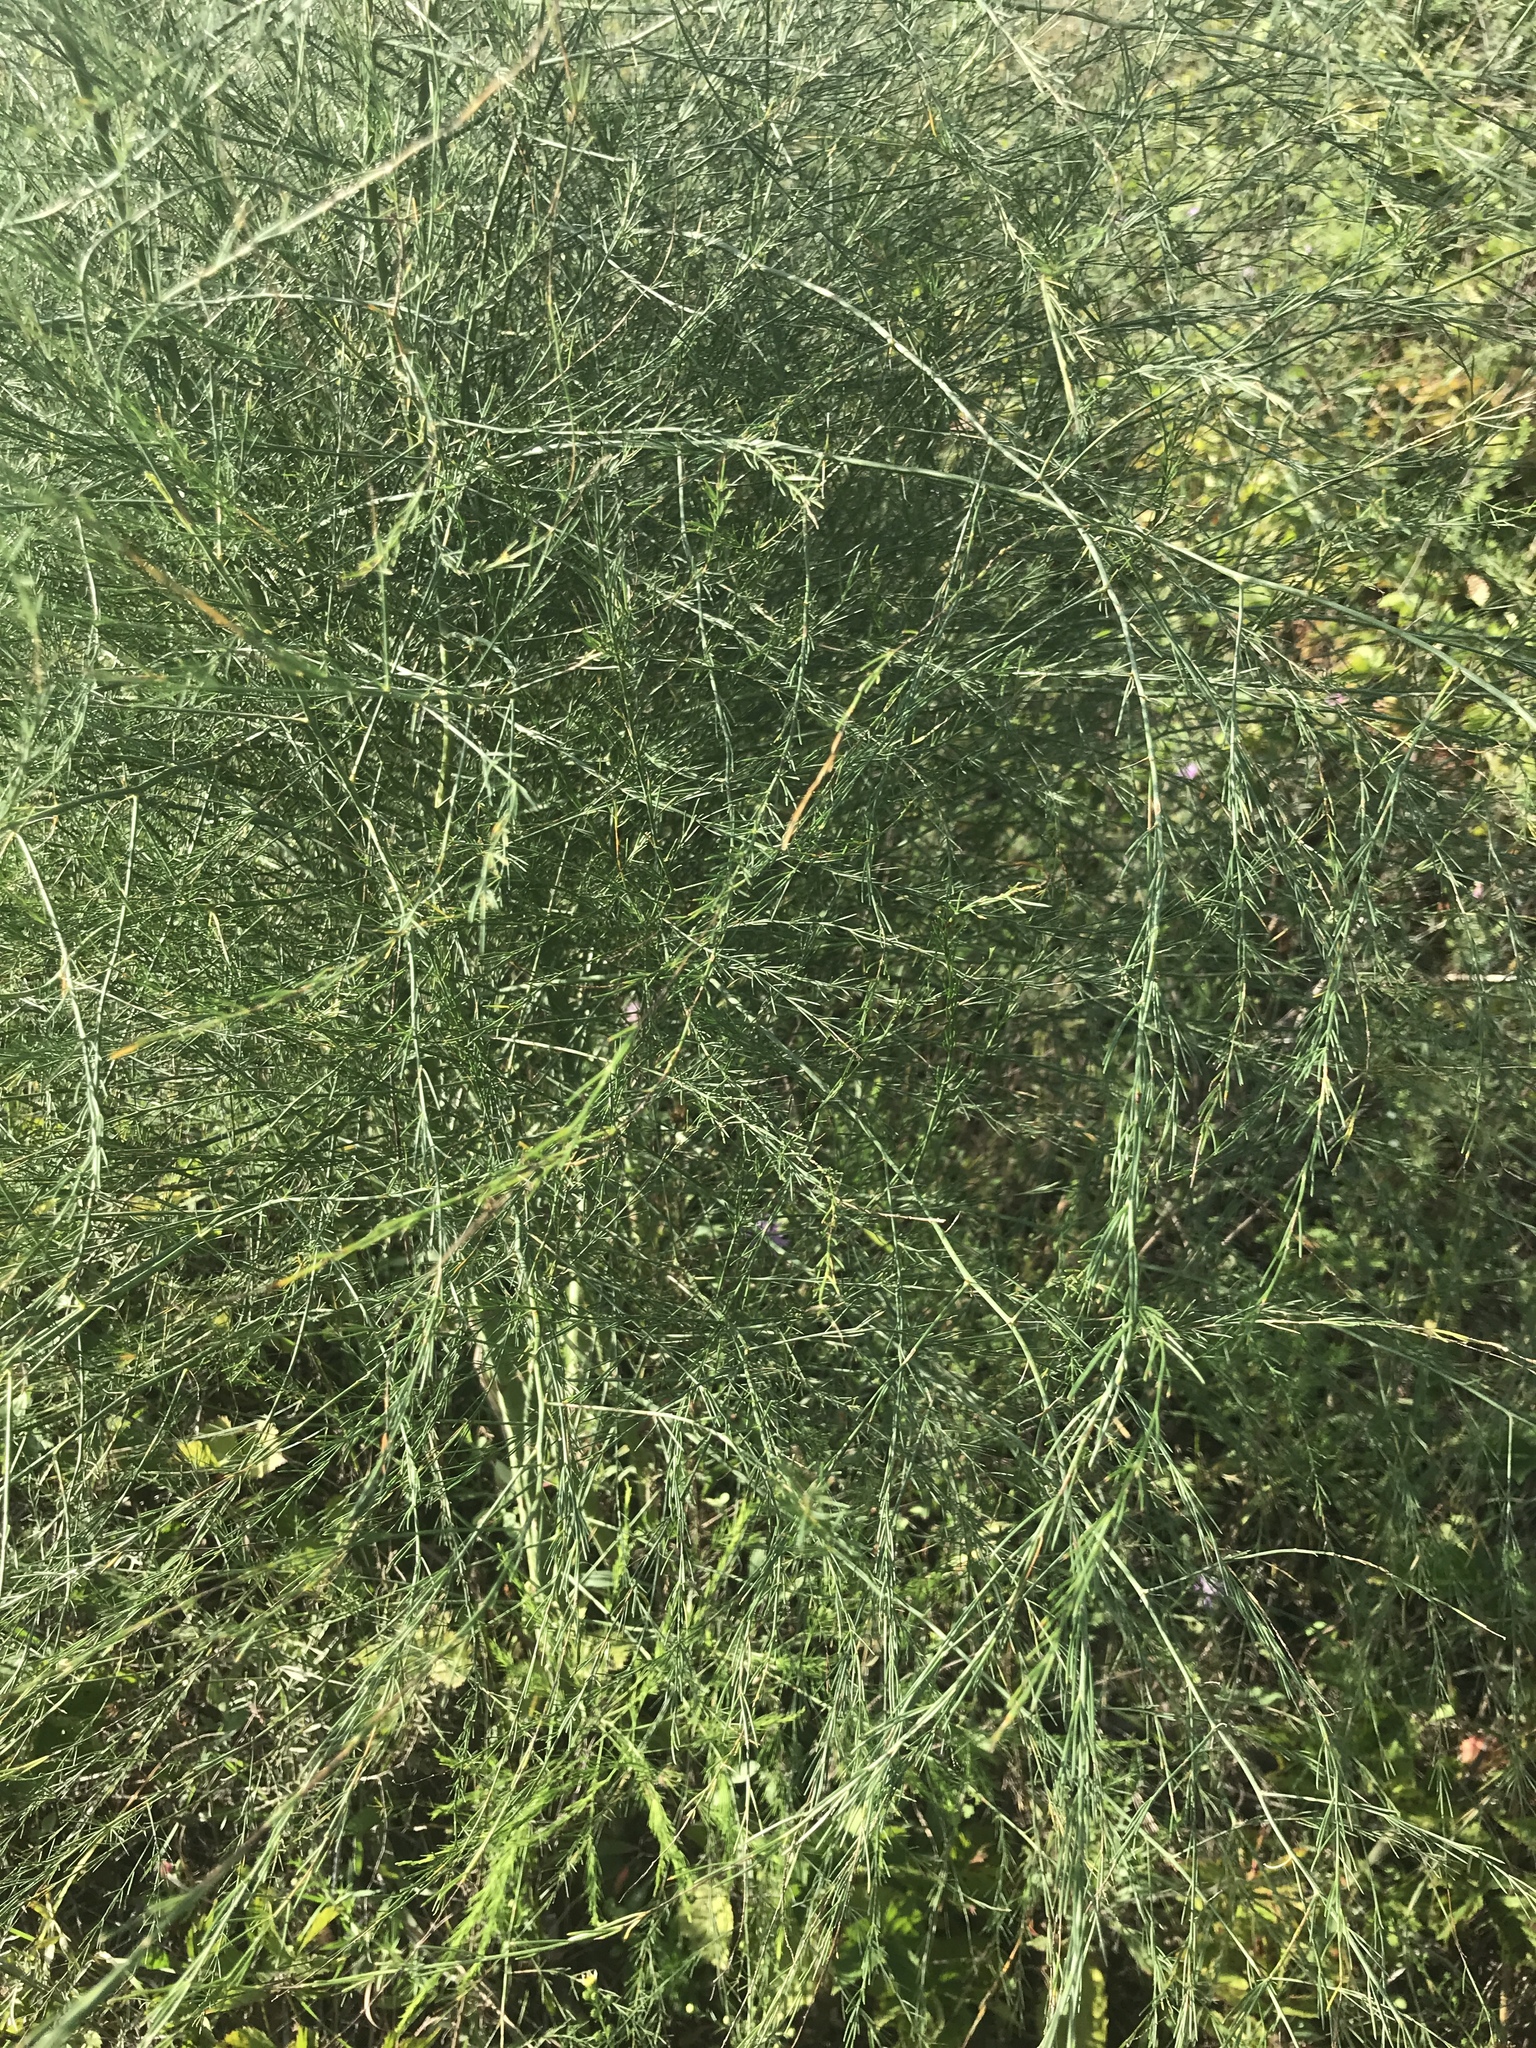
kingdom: Plantae
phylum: Tracheophyta
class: Liliopsida
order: Asparagales
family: Asparagaceae
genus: Asparagus
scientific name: Asparagus officinalis
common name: Garden asparagus
